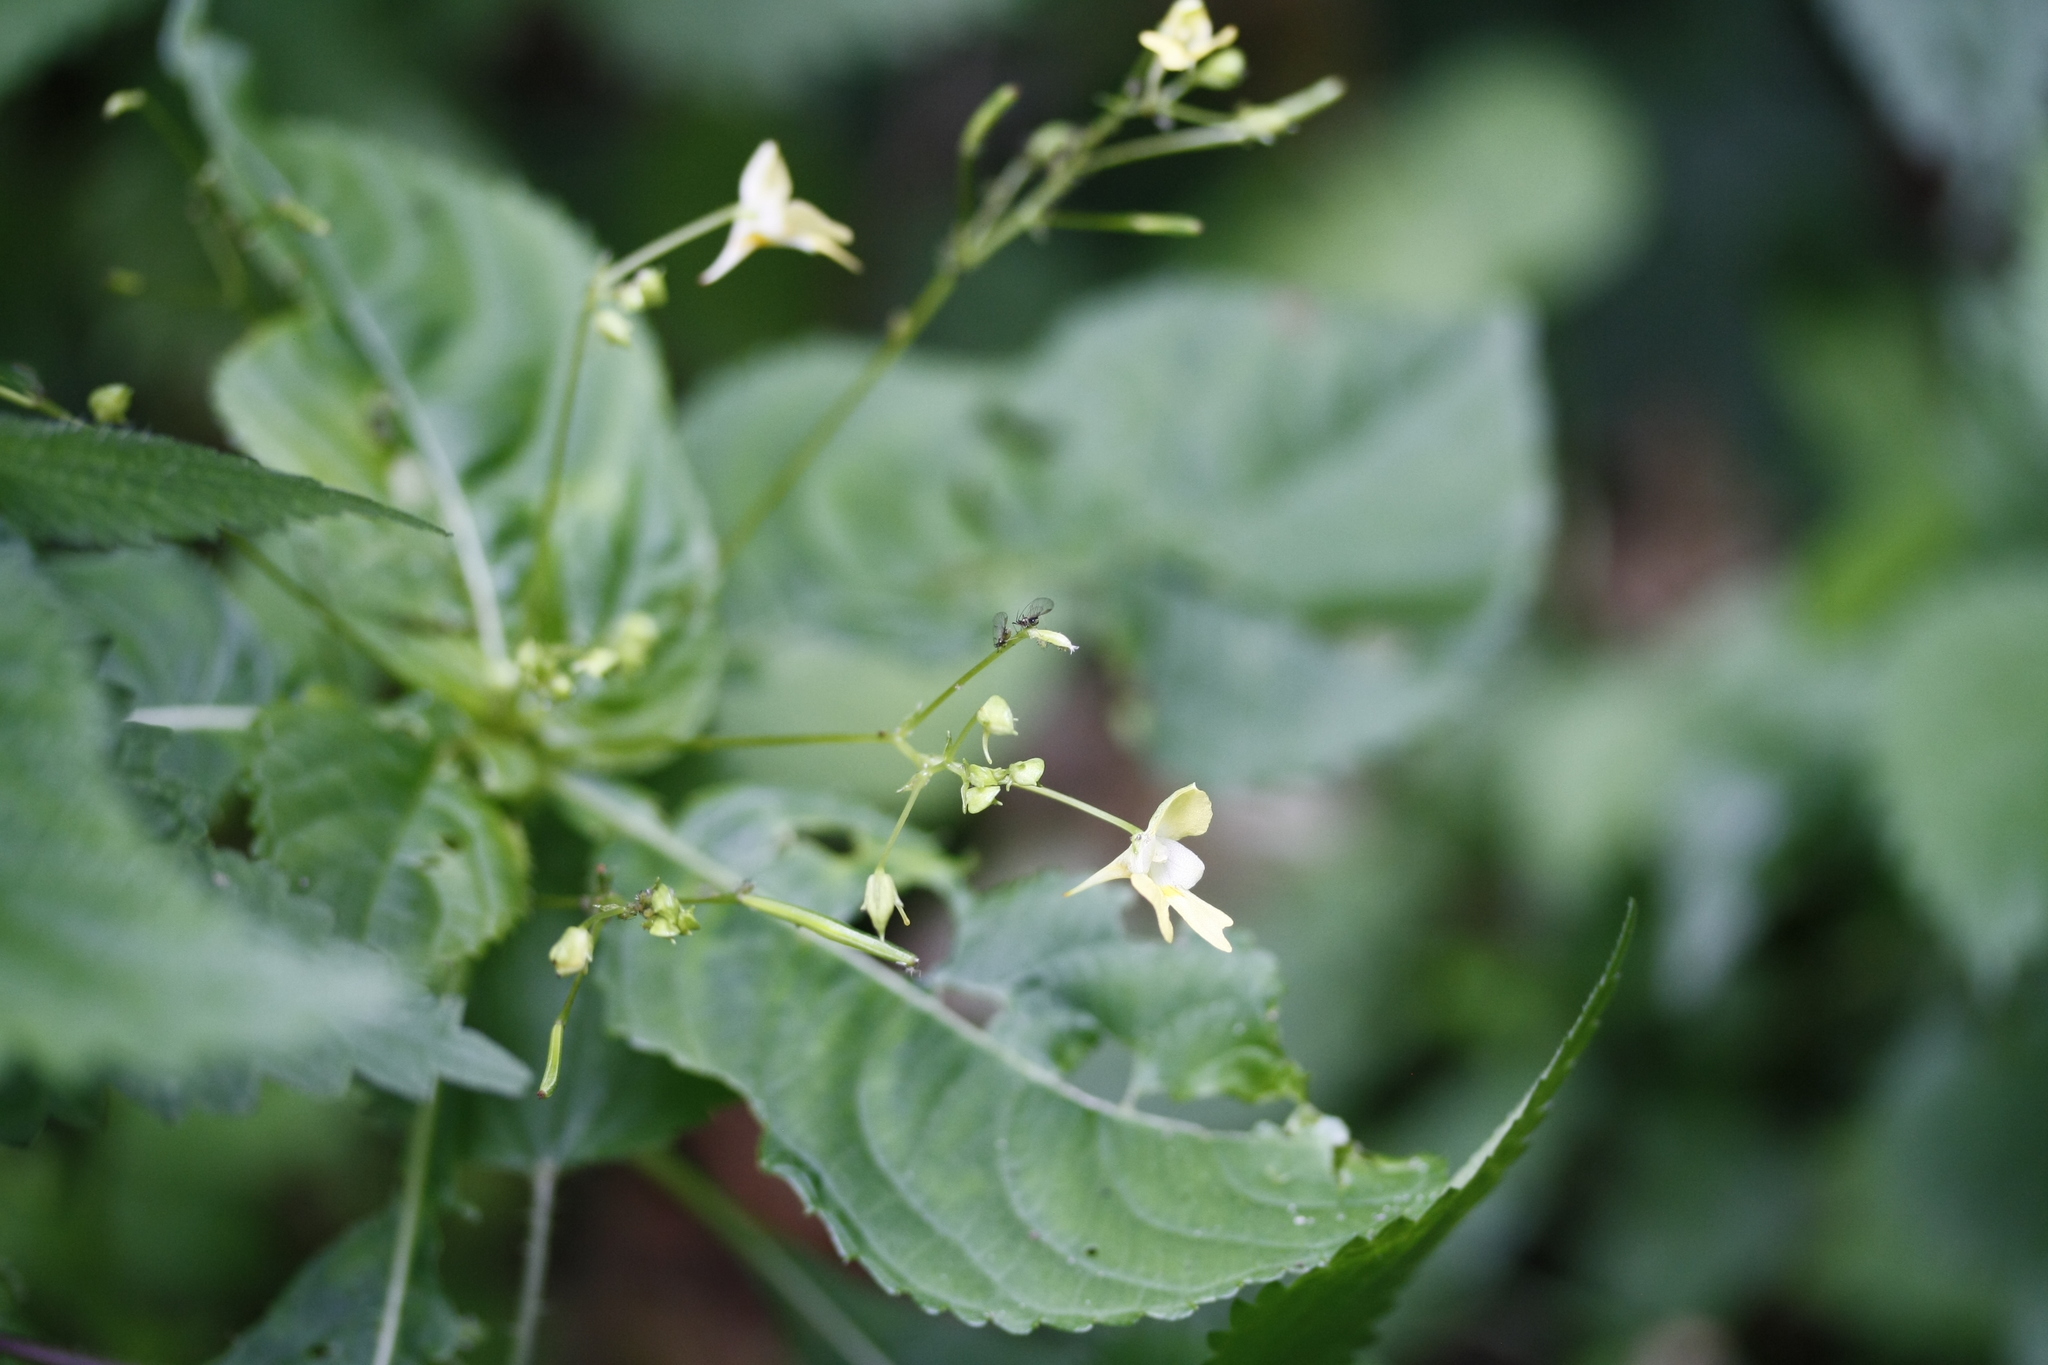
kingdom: Plantae
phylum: Tracheophyta
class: Magnoliopsida
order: Ericales
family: Balsaminaceae
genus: Impatiens
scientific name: Impatiens parviflora
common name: Small balsam
